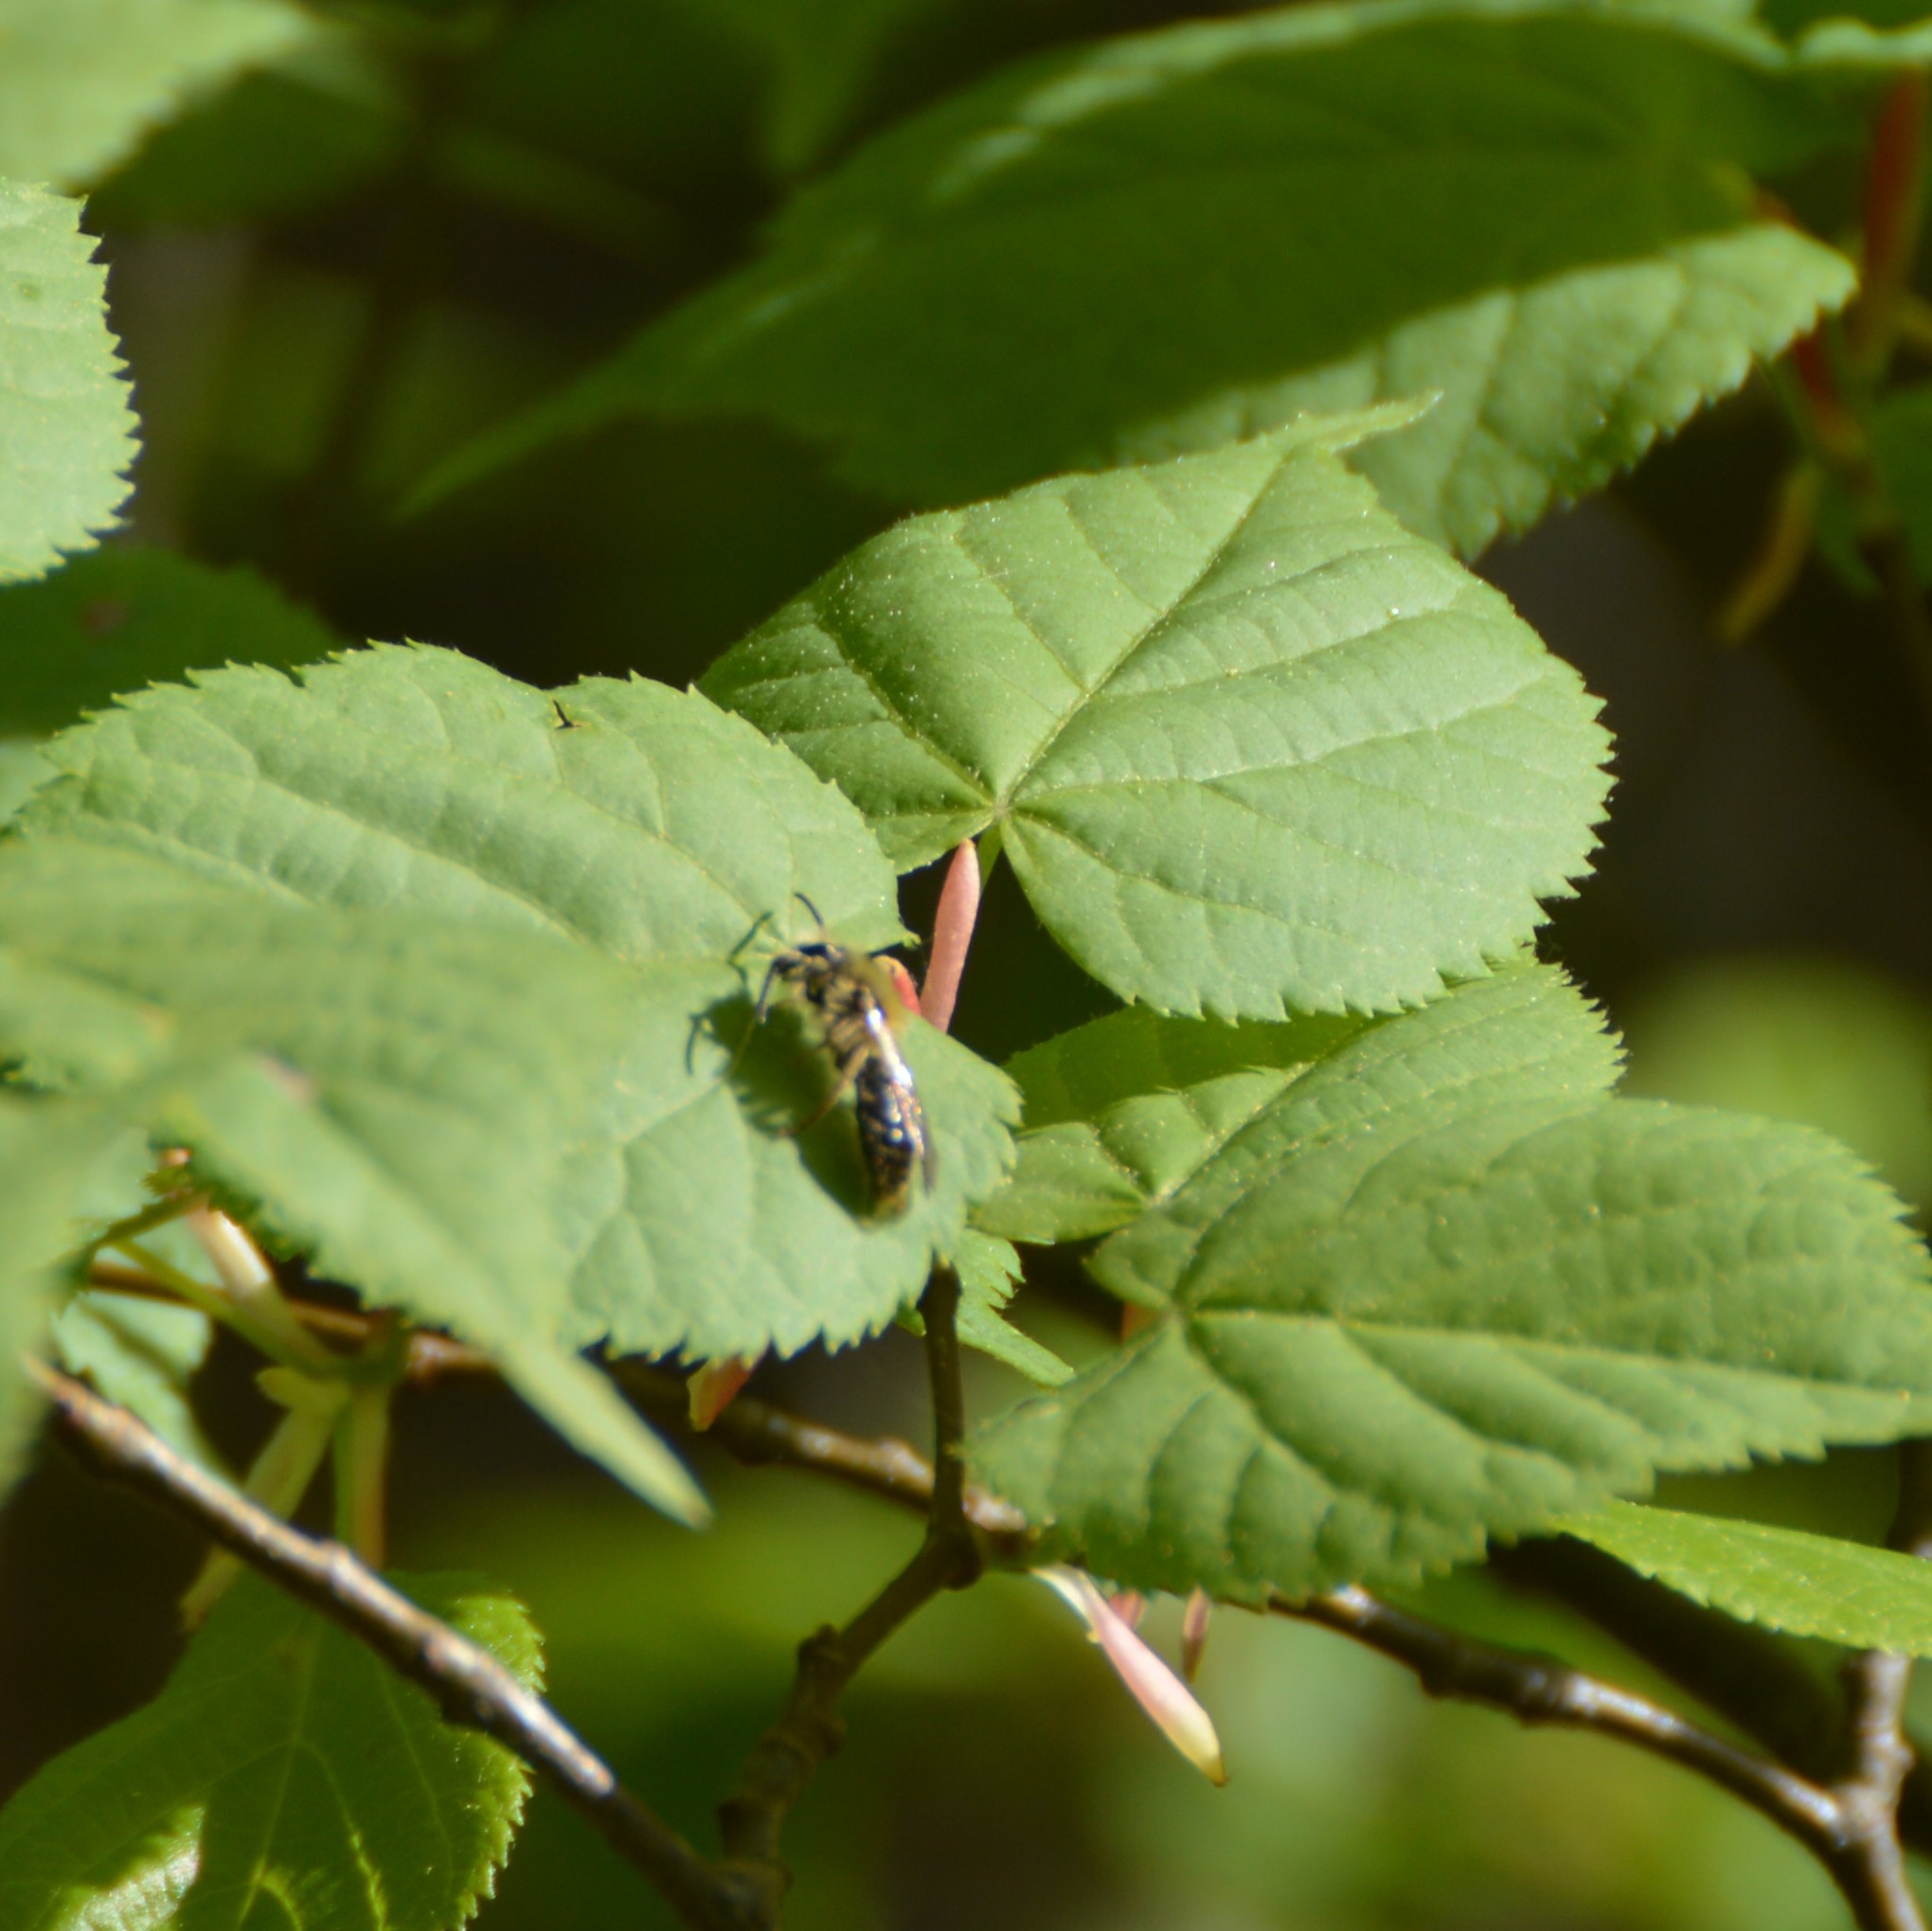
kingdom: Animalia
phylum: Arthropoda
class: Insecta
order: Hymenoptera
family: Andrenidae
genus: Andrena
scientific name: Andrena
